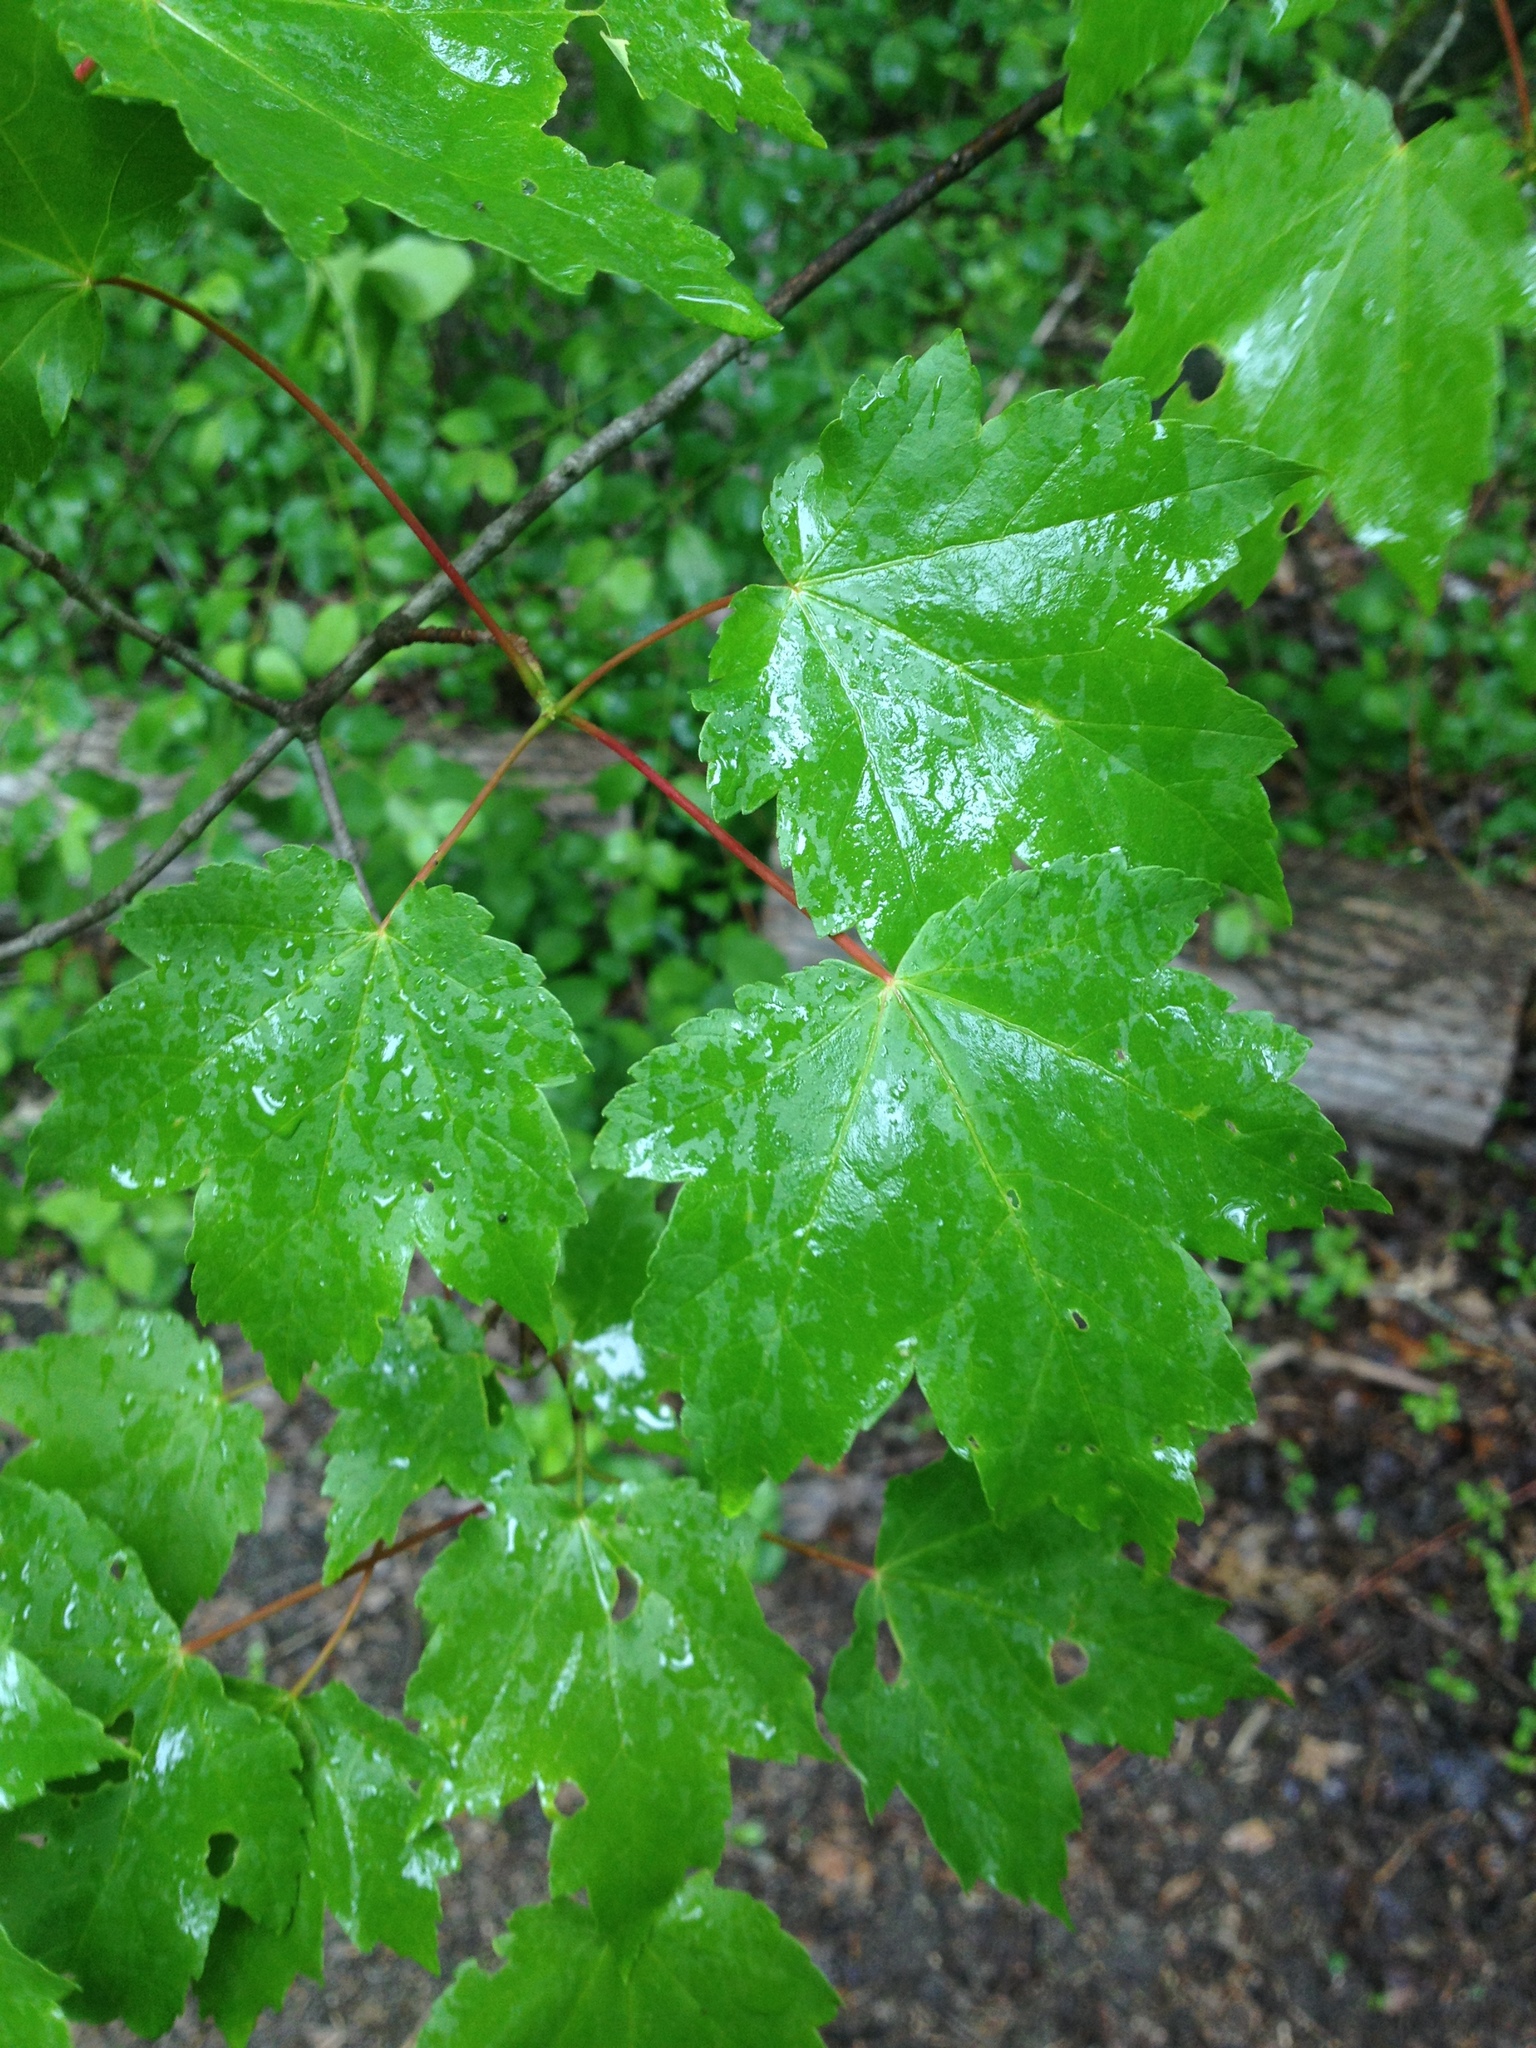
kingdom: Plantae
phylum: Tracheophyta
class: Magnoliopsida
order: Sapindales
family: Sapindaceae
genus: Acer
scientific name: Acer rubrum
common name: Red maple
